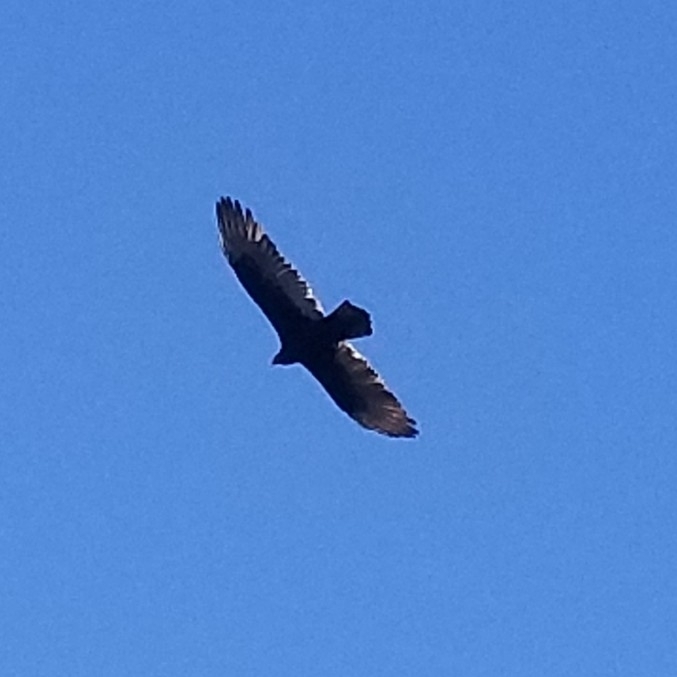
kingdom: Animalia
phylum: Chordata
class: Aves
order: Accipitriformes
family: Cathartidae
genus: Cathartes
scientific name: Cathartes aura
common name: Turkey vulture
